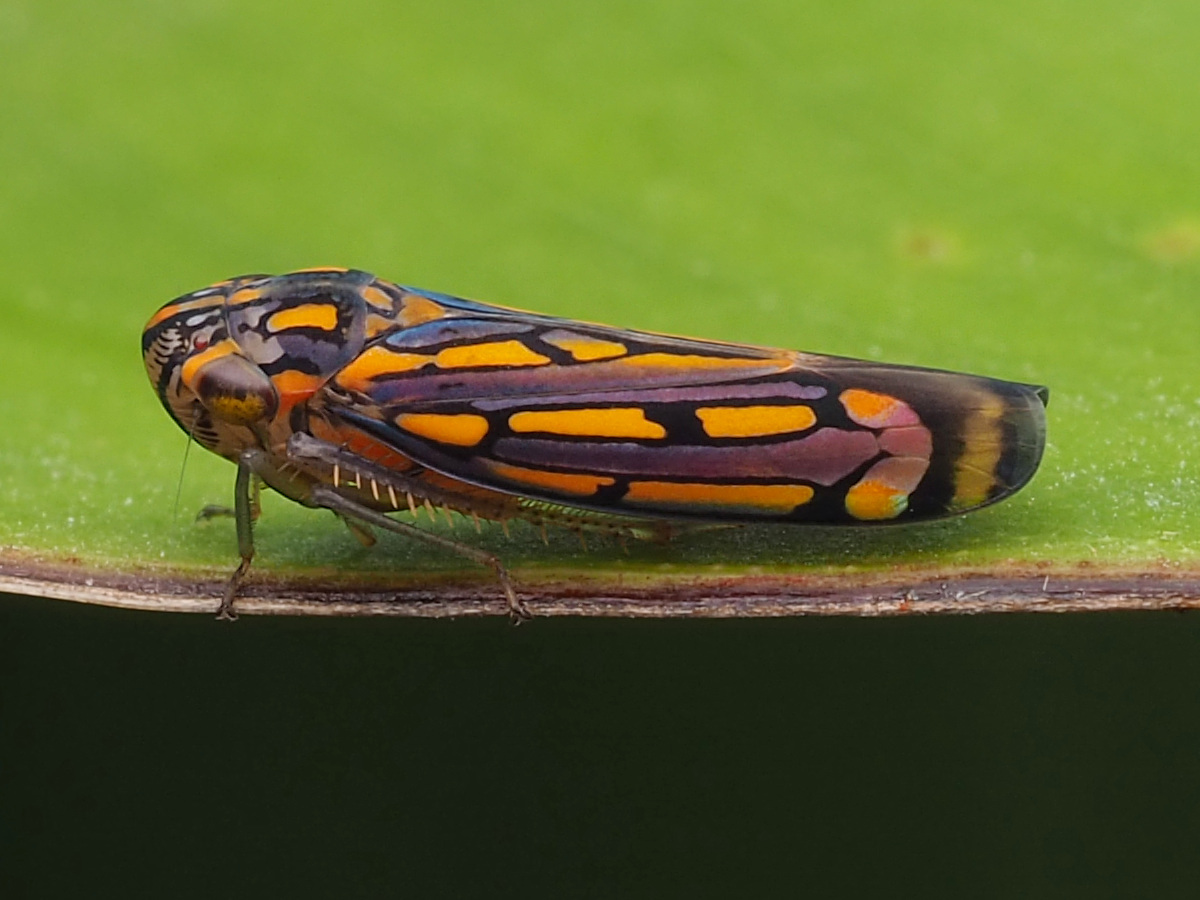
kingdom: Animalia
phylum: Arthropoda
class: Insecta
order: Hemiptera
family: Cicadellidae
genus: Apogonalia
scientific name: Apogonalia stalii
